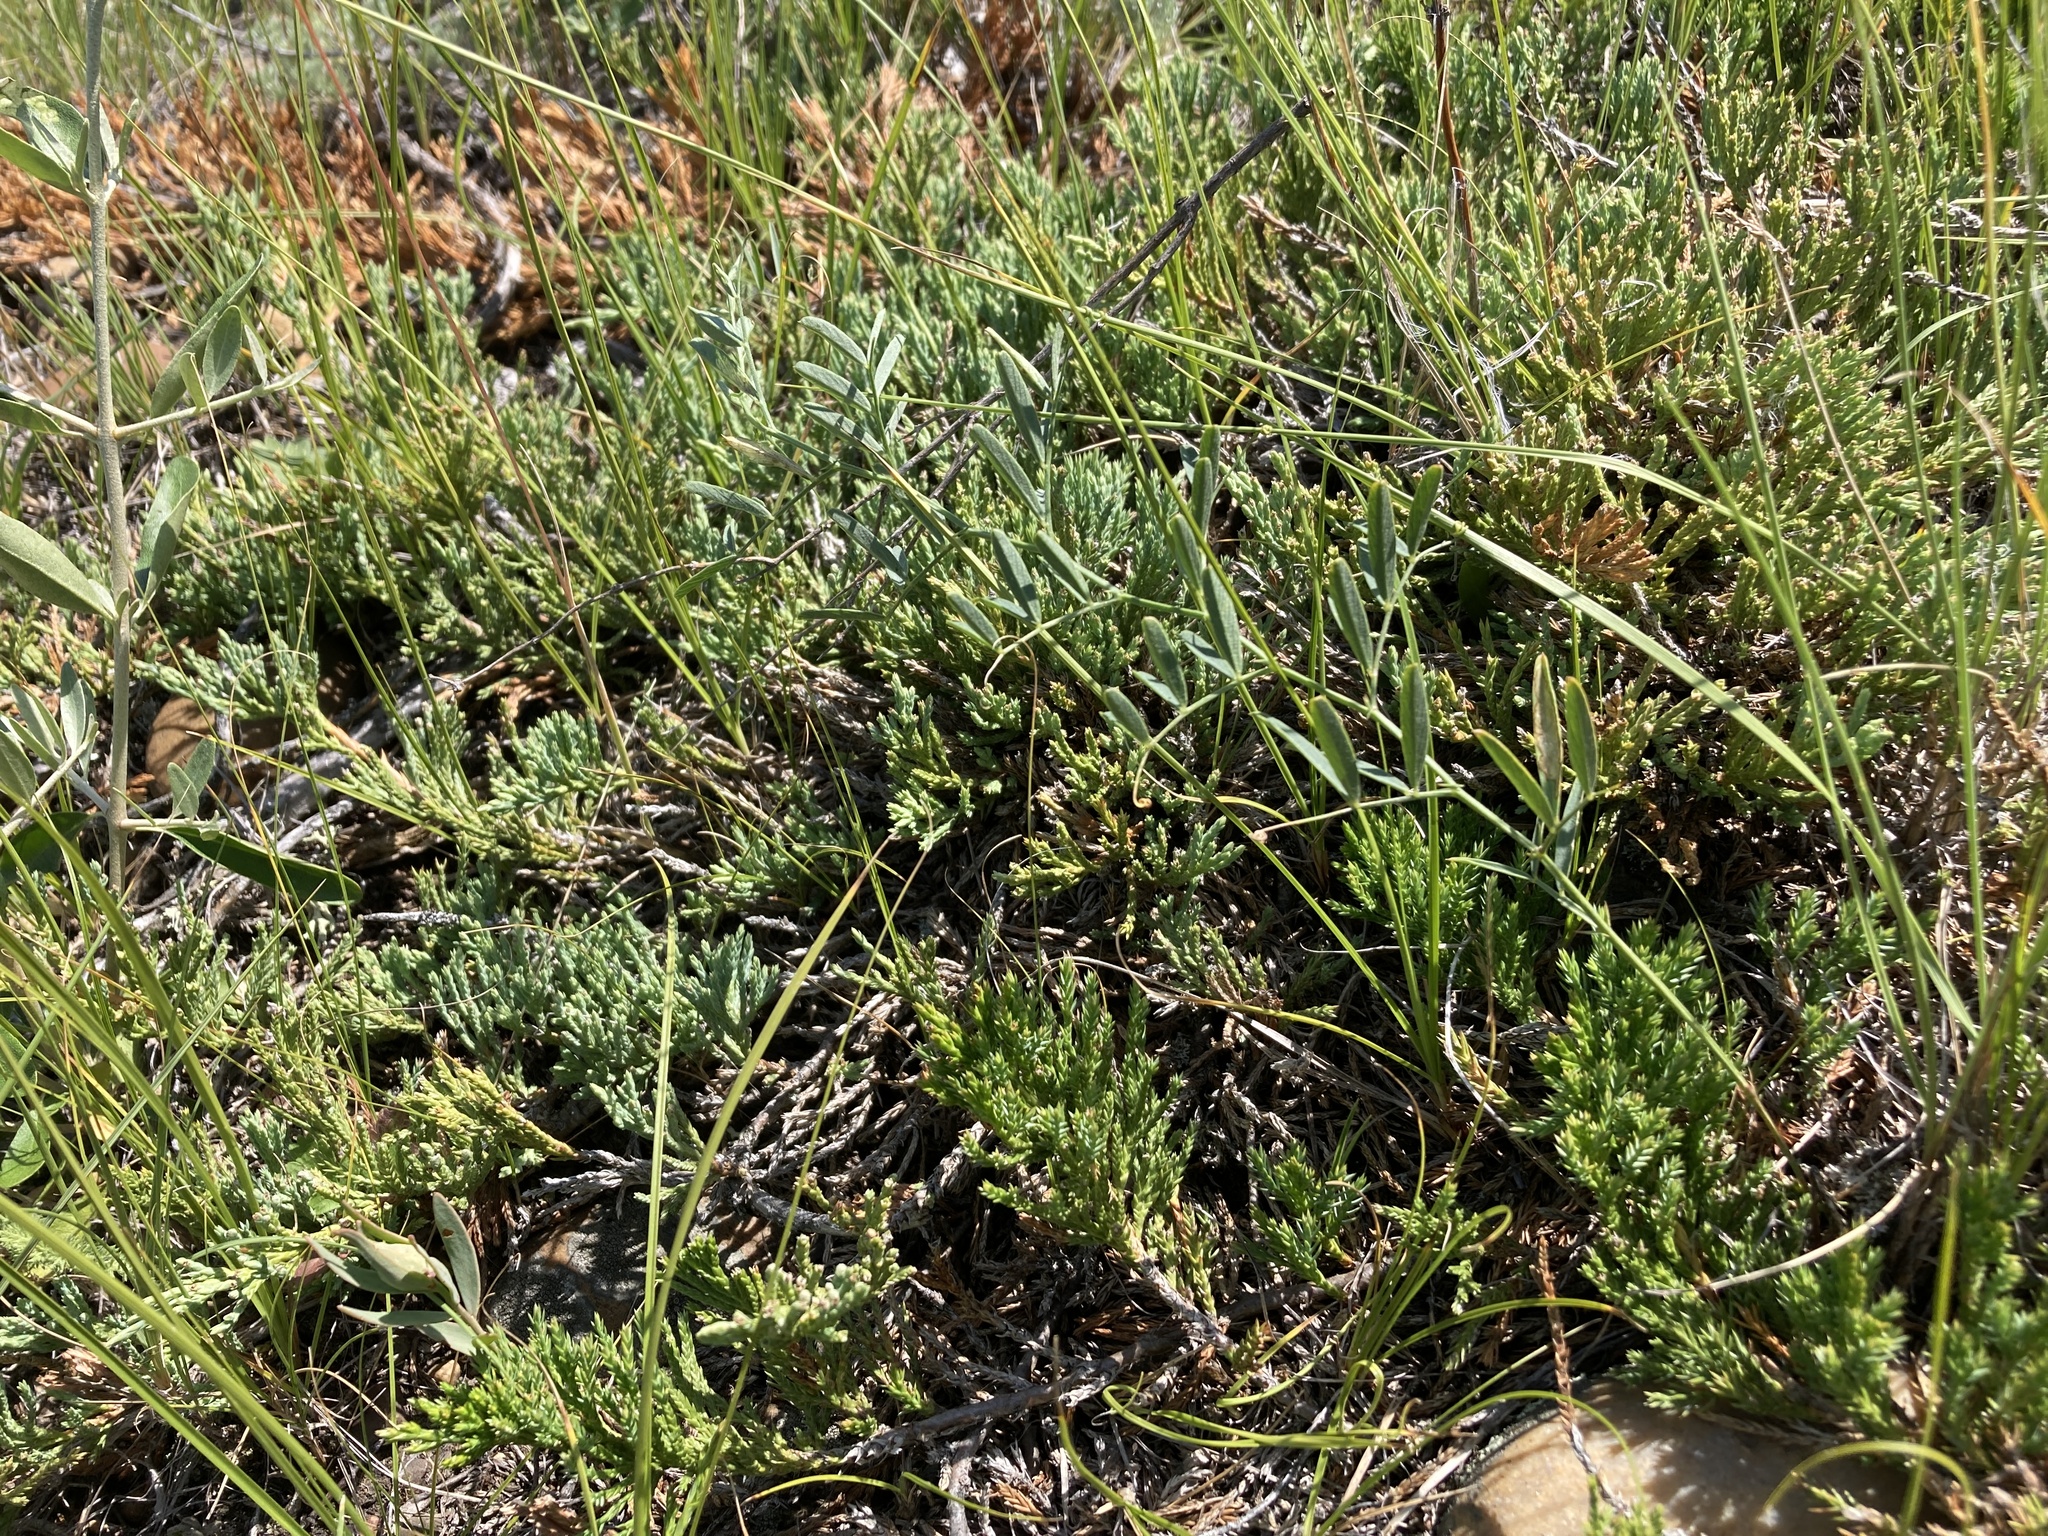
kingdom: Plantae
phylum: Tracheophyta
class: Pinopsida
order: Pinales
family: Cupressaceae
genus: Juniperus
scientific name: Juniperus horizontalis
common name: Creeping juniper
